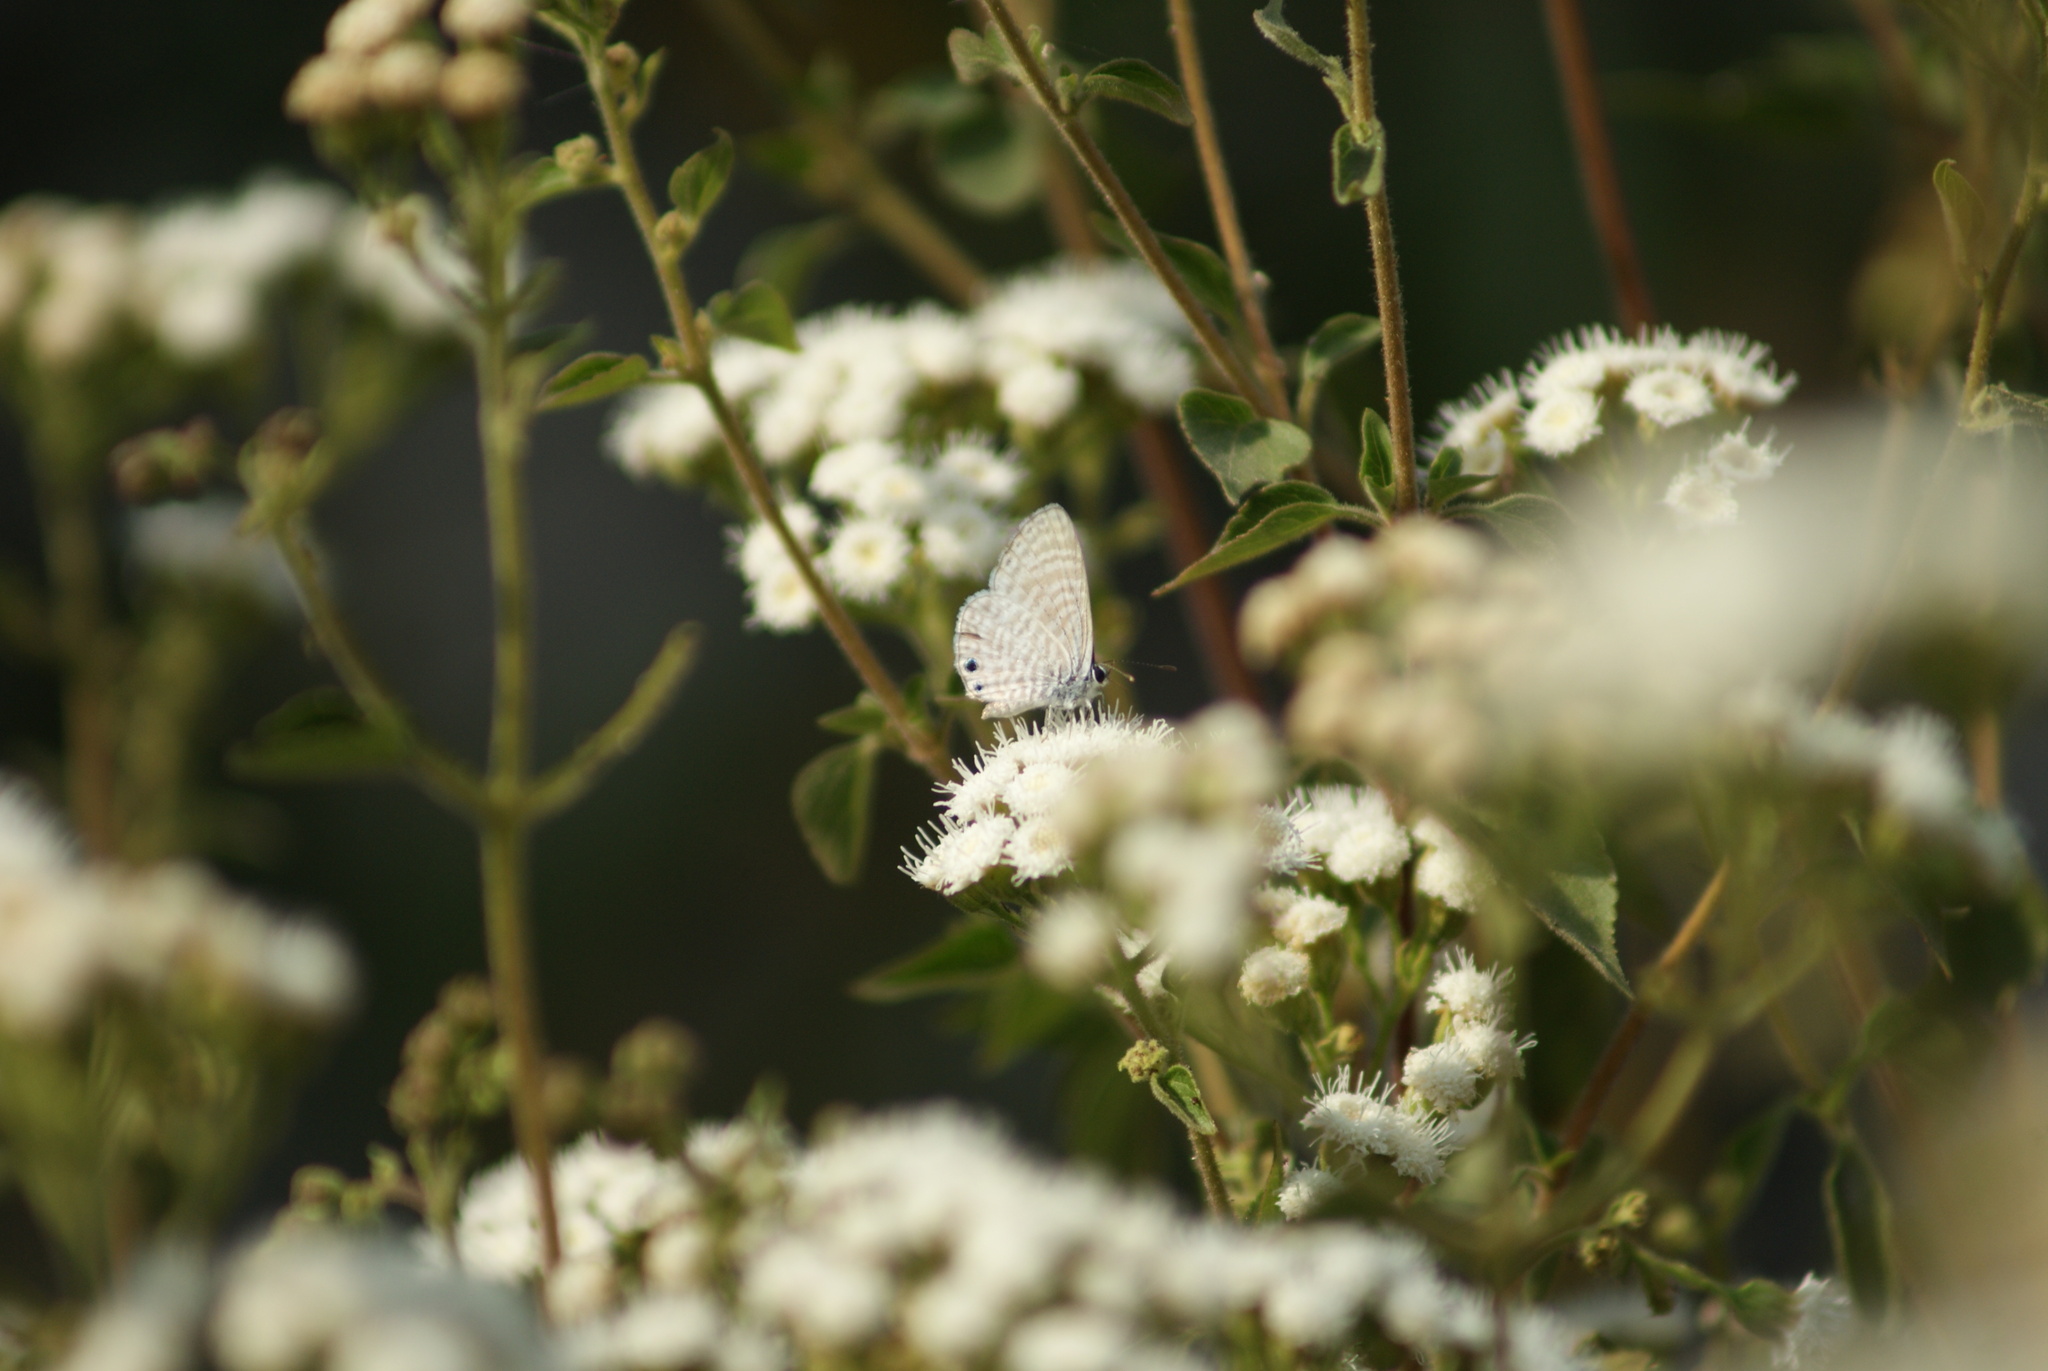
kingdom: Animalia
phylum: Arthropoda
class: Insecta
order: Lepidoptera
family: Lycaenidae
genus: Leptotes
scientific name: Leptotes marina
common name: Marine blue
